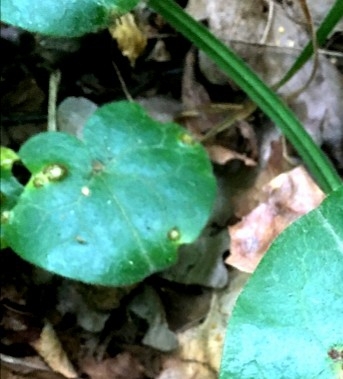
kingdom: Plantae
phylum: Tracheophyta
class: Magnoliopsida
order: Piperales
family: Aristolochiaceae
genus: Asarum
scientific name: Asarum europaeum
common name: Asarabacca
